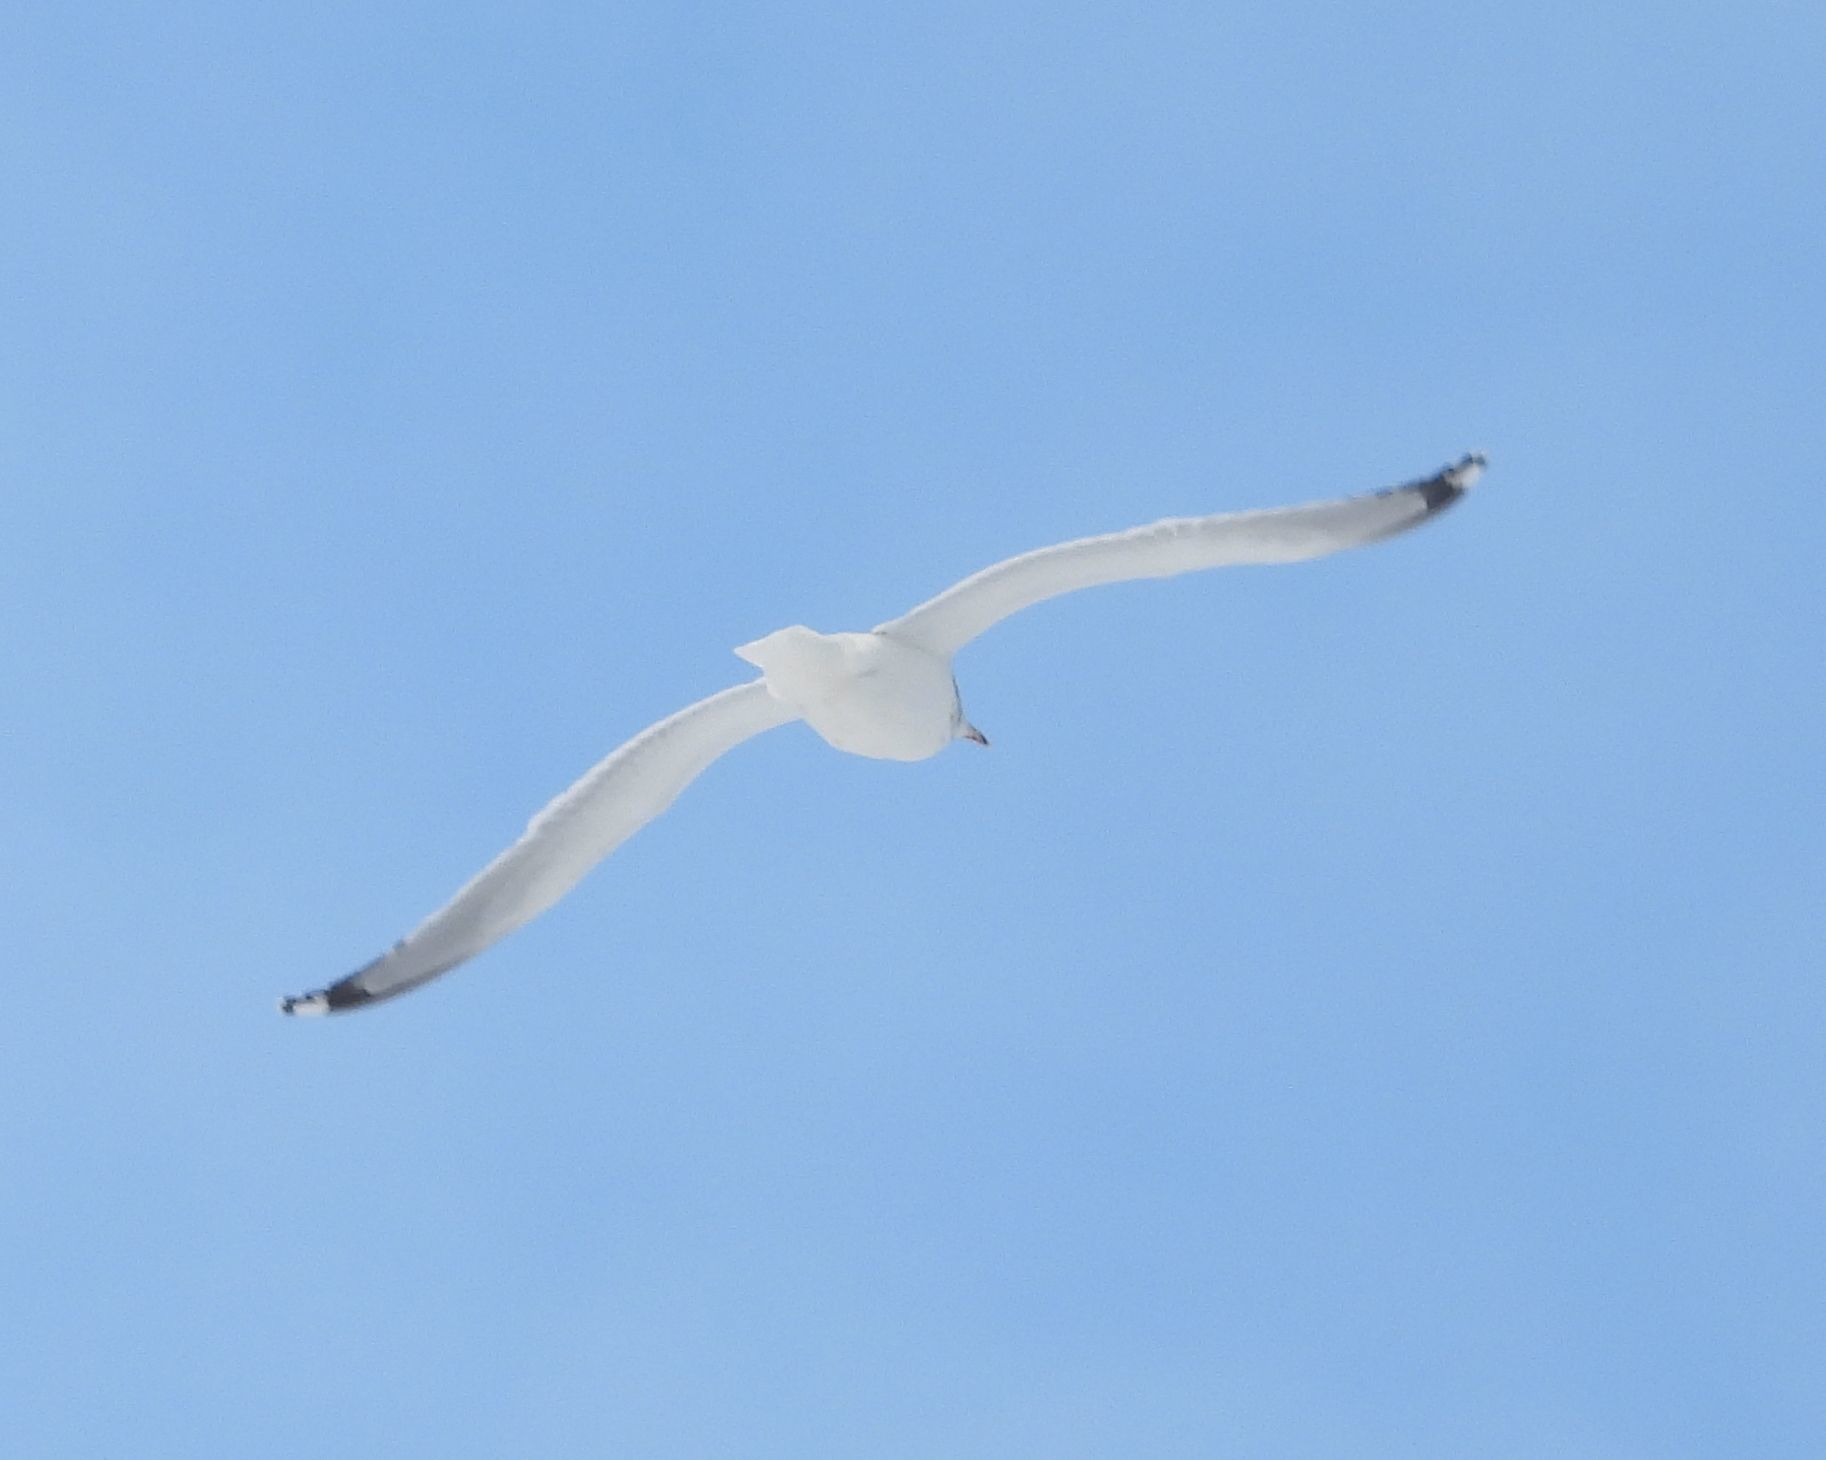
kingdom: Animalia
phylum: Chordata
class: Aves
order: Charadriiformes
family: Laridae
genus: Larus
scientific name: Larus argentatus
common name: Herring gull
